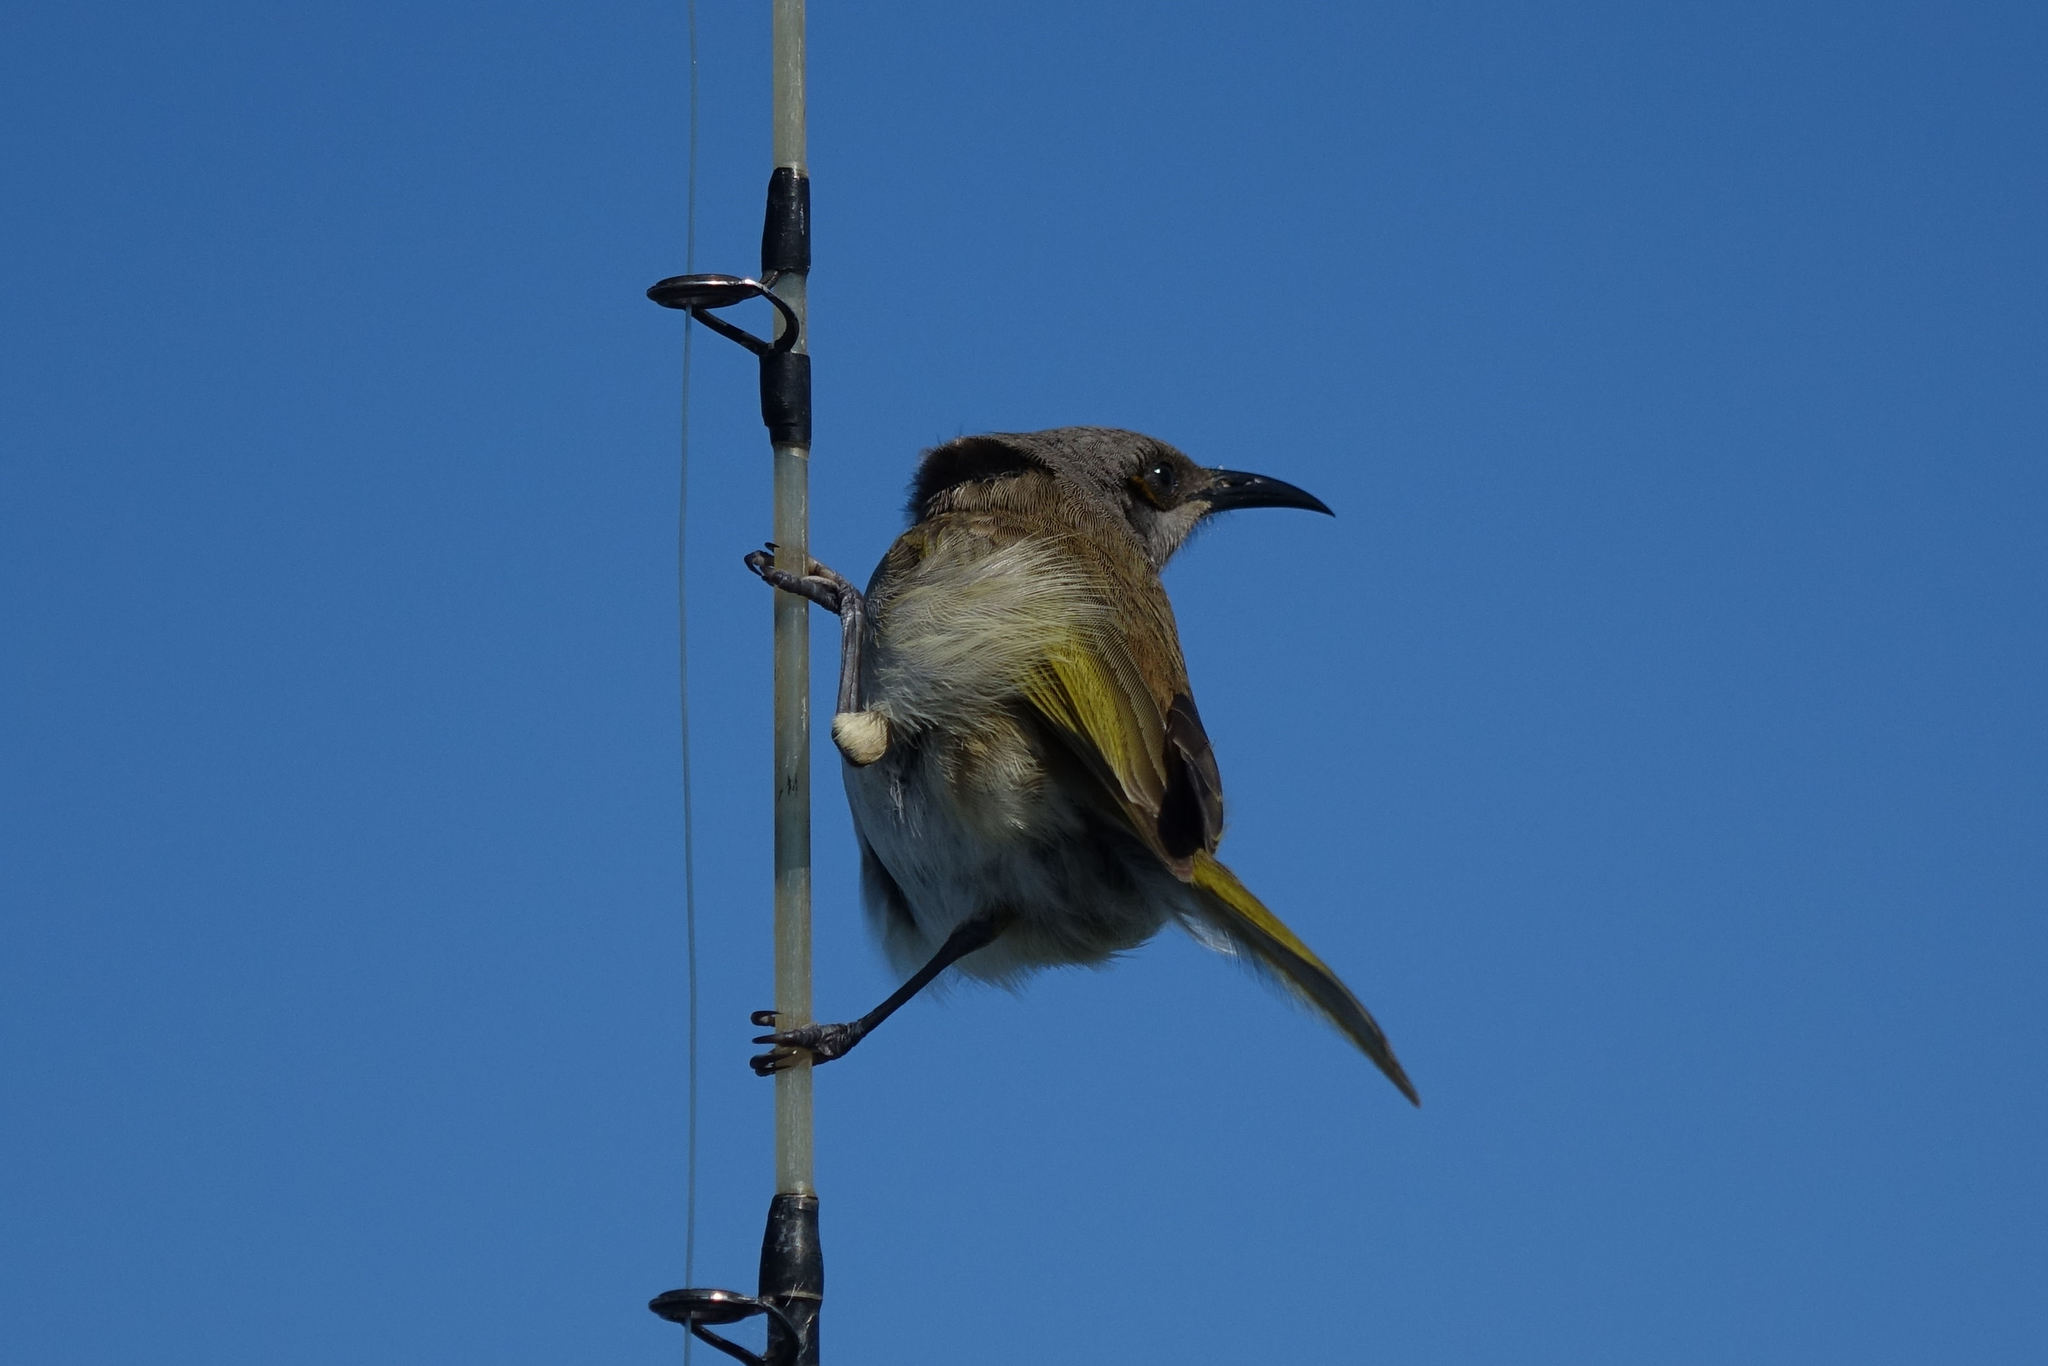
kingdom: Animalia
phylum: Chordata
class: Aves
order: Passeriformes
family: Meliphagidae
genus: Lichmera
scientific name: Lichmera indistincta
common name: Brown honeyeater
